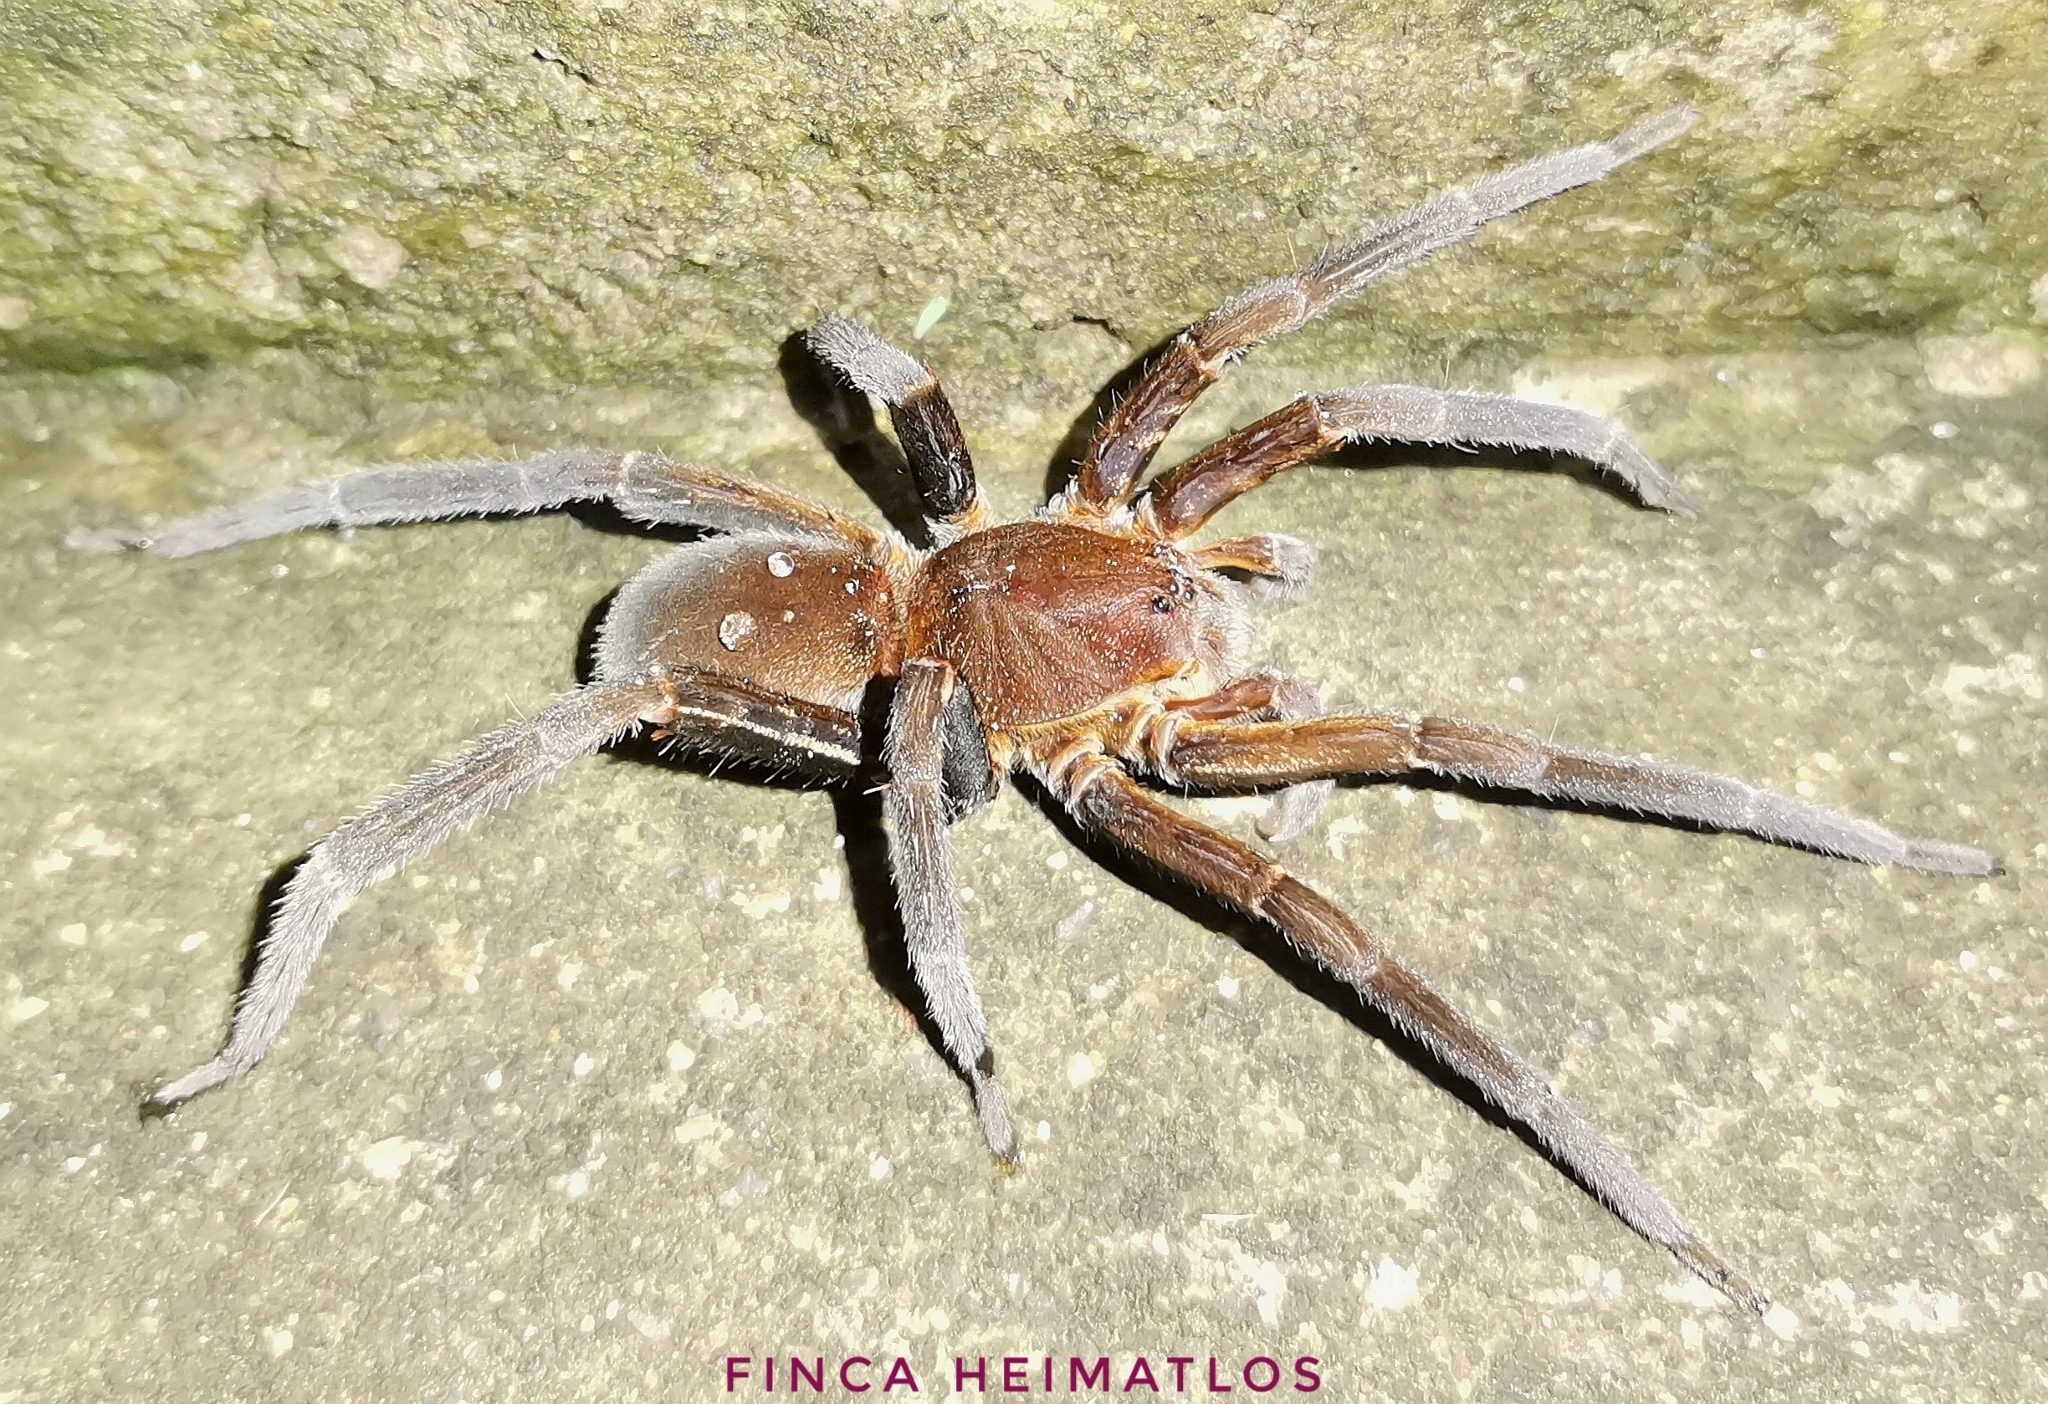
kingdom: Animalia
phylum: Arthropoda
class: Arachnida
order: Araneae
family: Ctenidae
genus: Ancylometes
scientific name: Ancylometes
